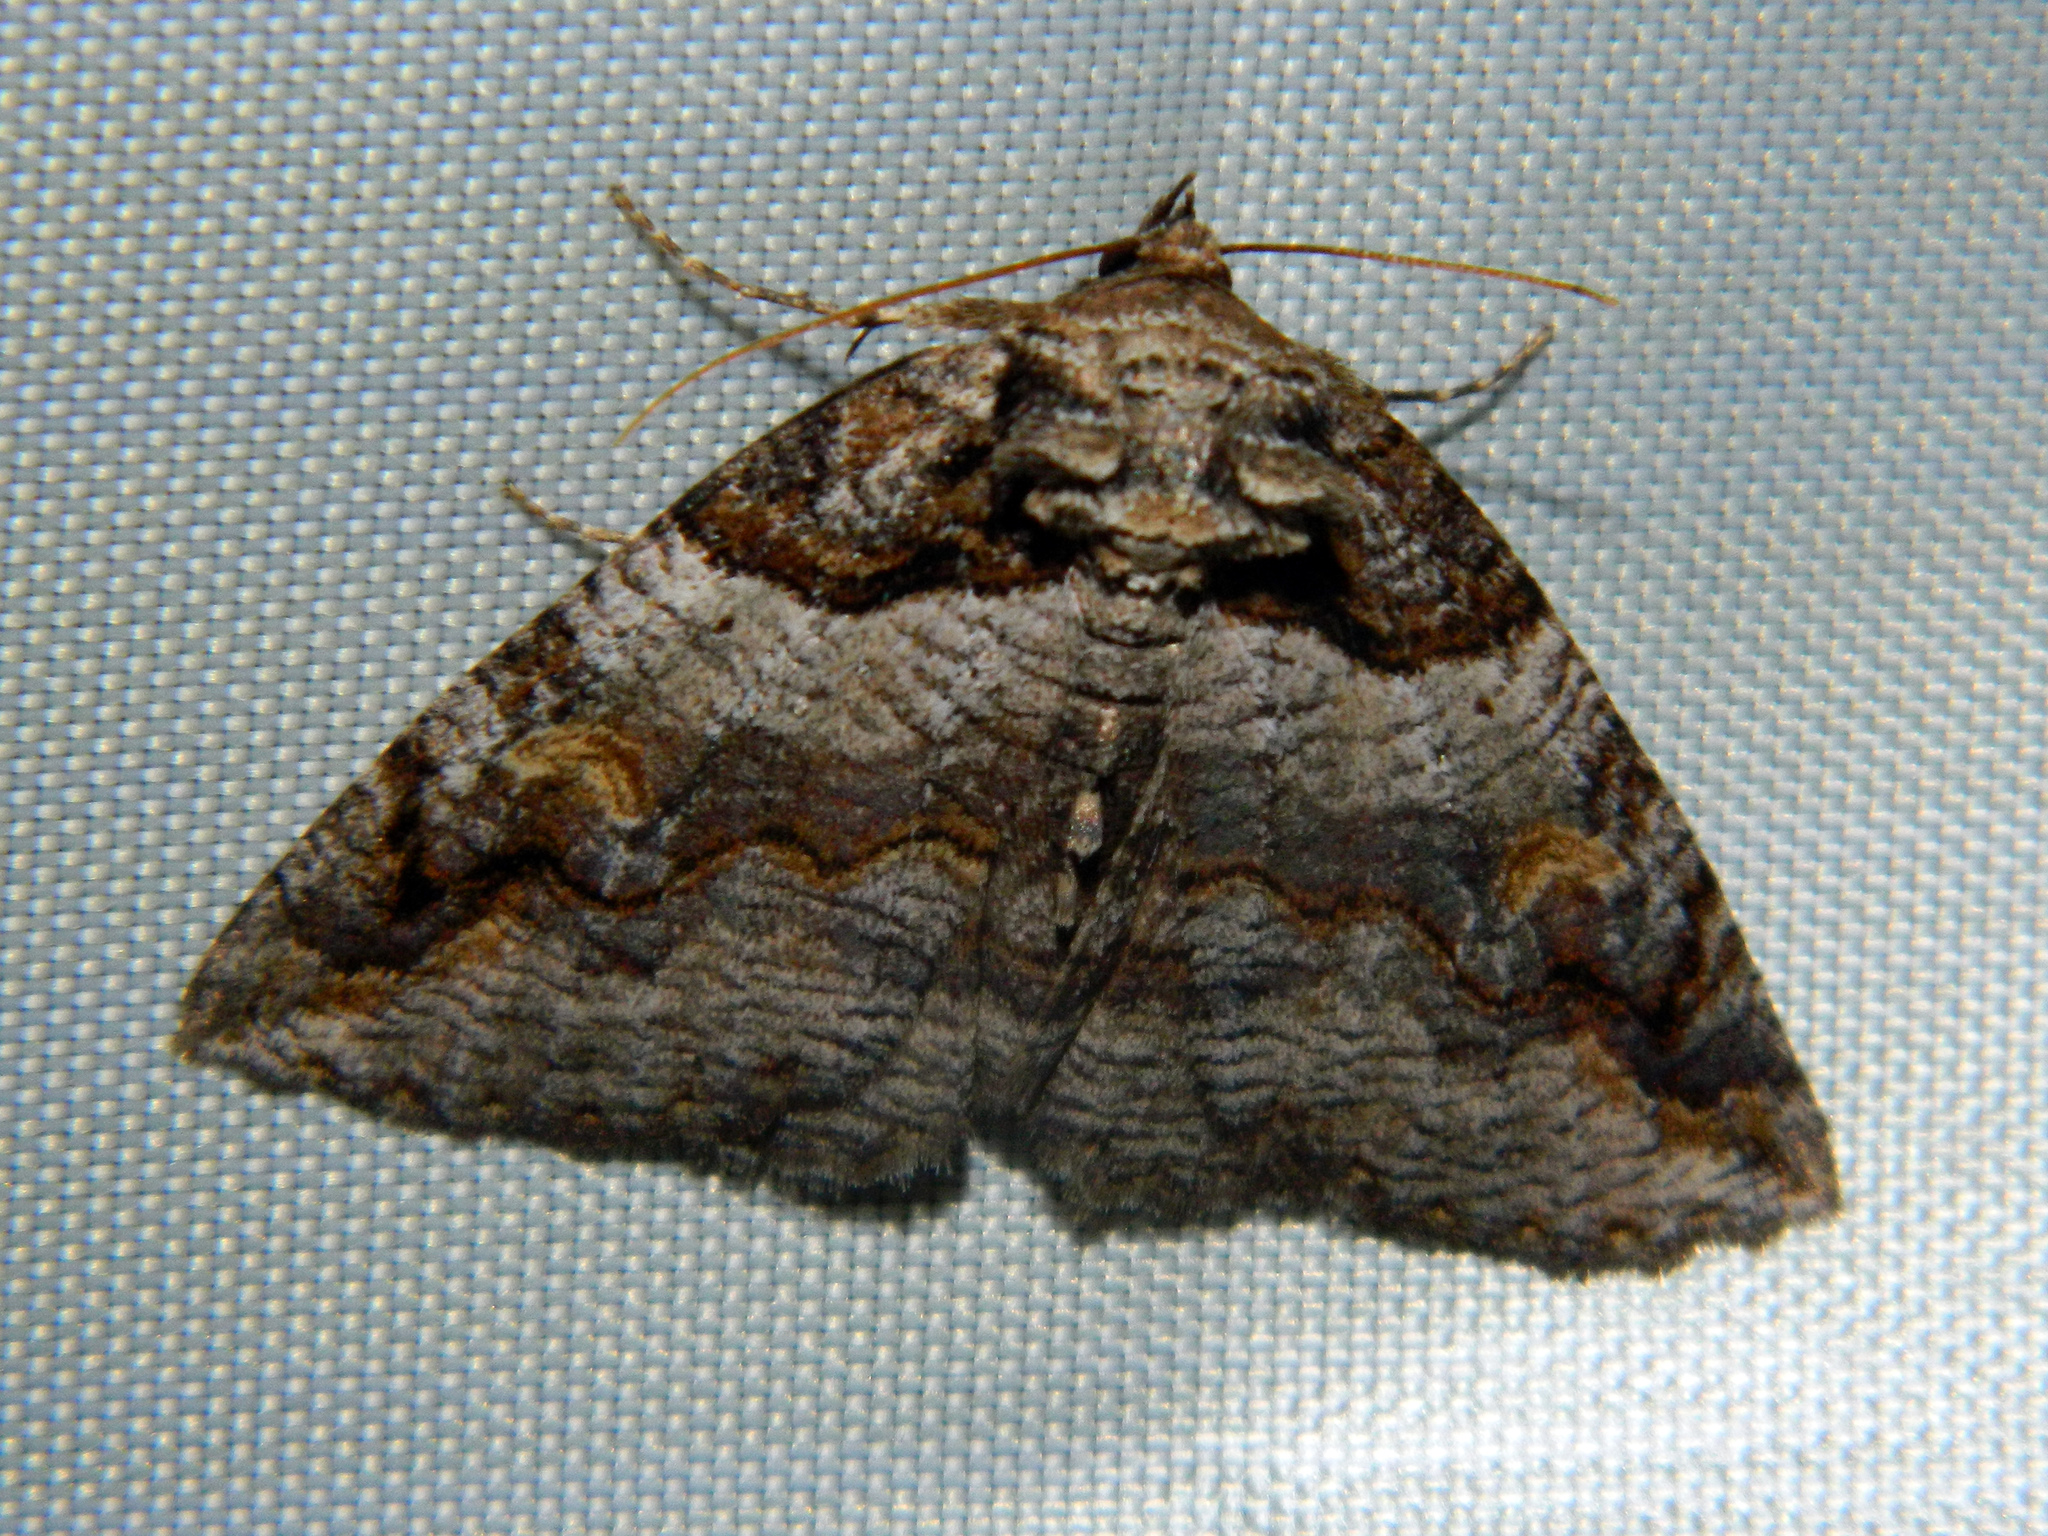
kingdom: Animalia
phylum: Arthropoda
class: Insecta
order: Lepidoptera
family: Erebidae
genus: Zale
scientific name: Zale intenta
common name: Intent zale moth
